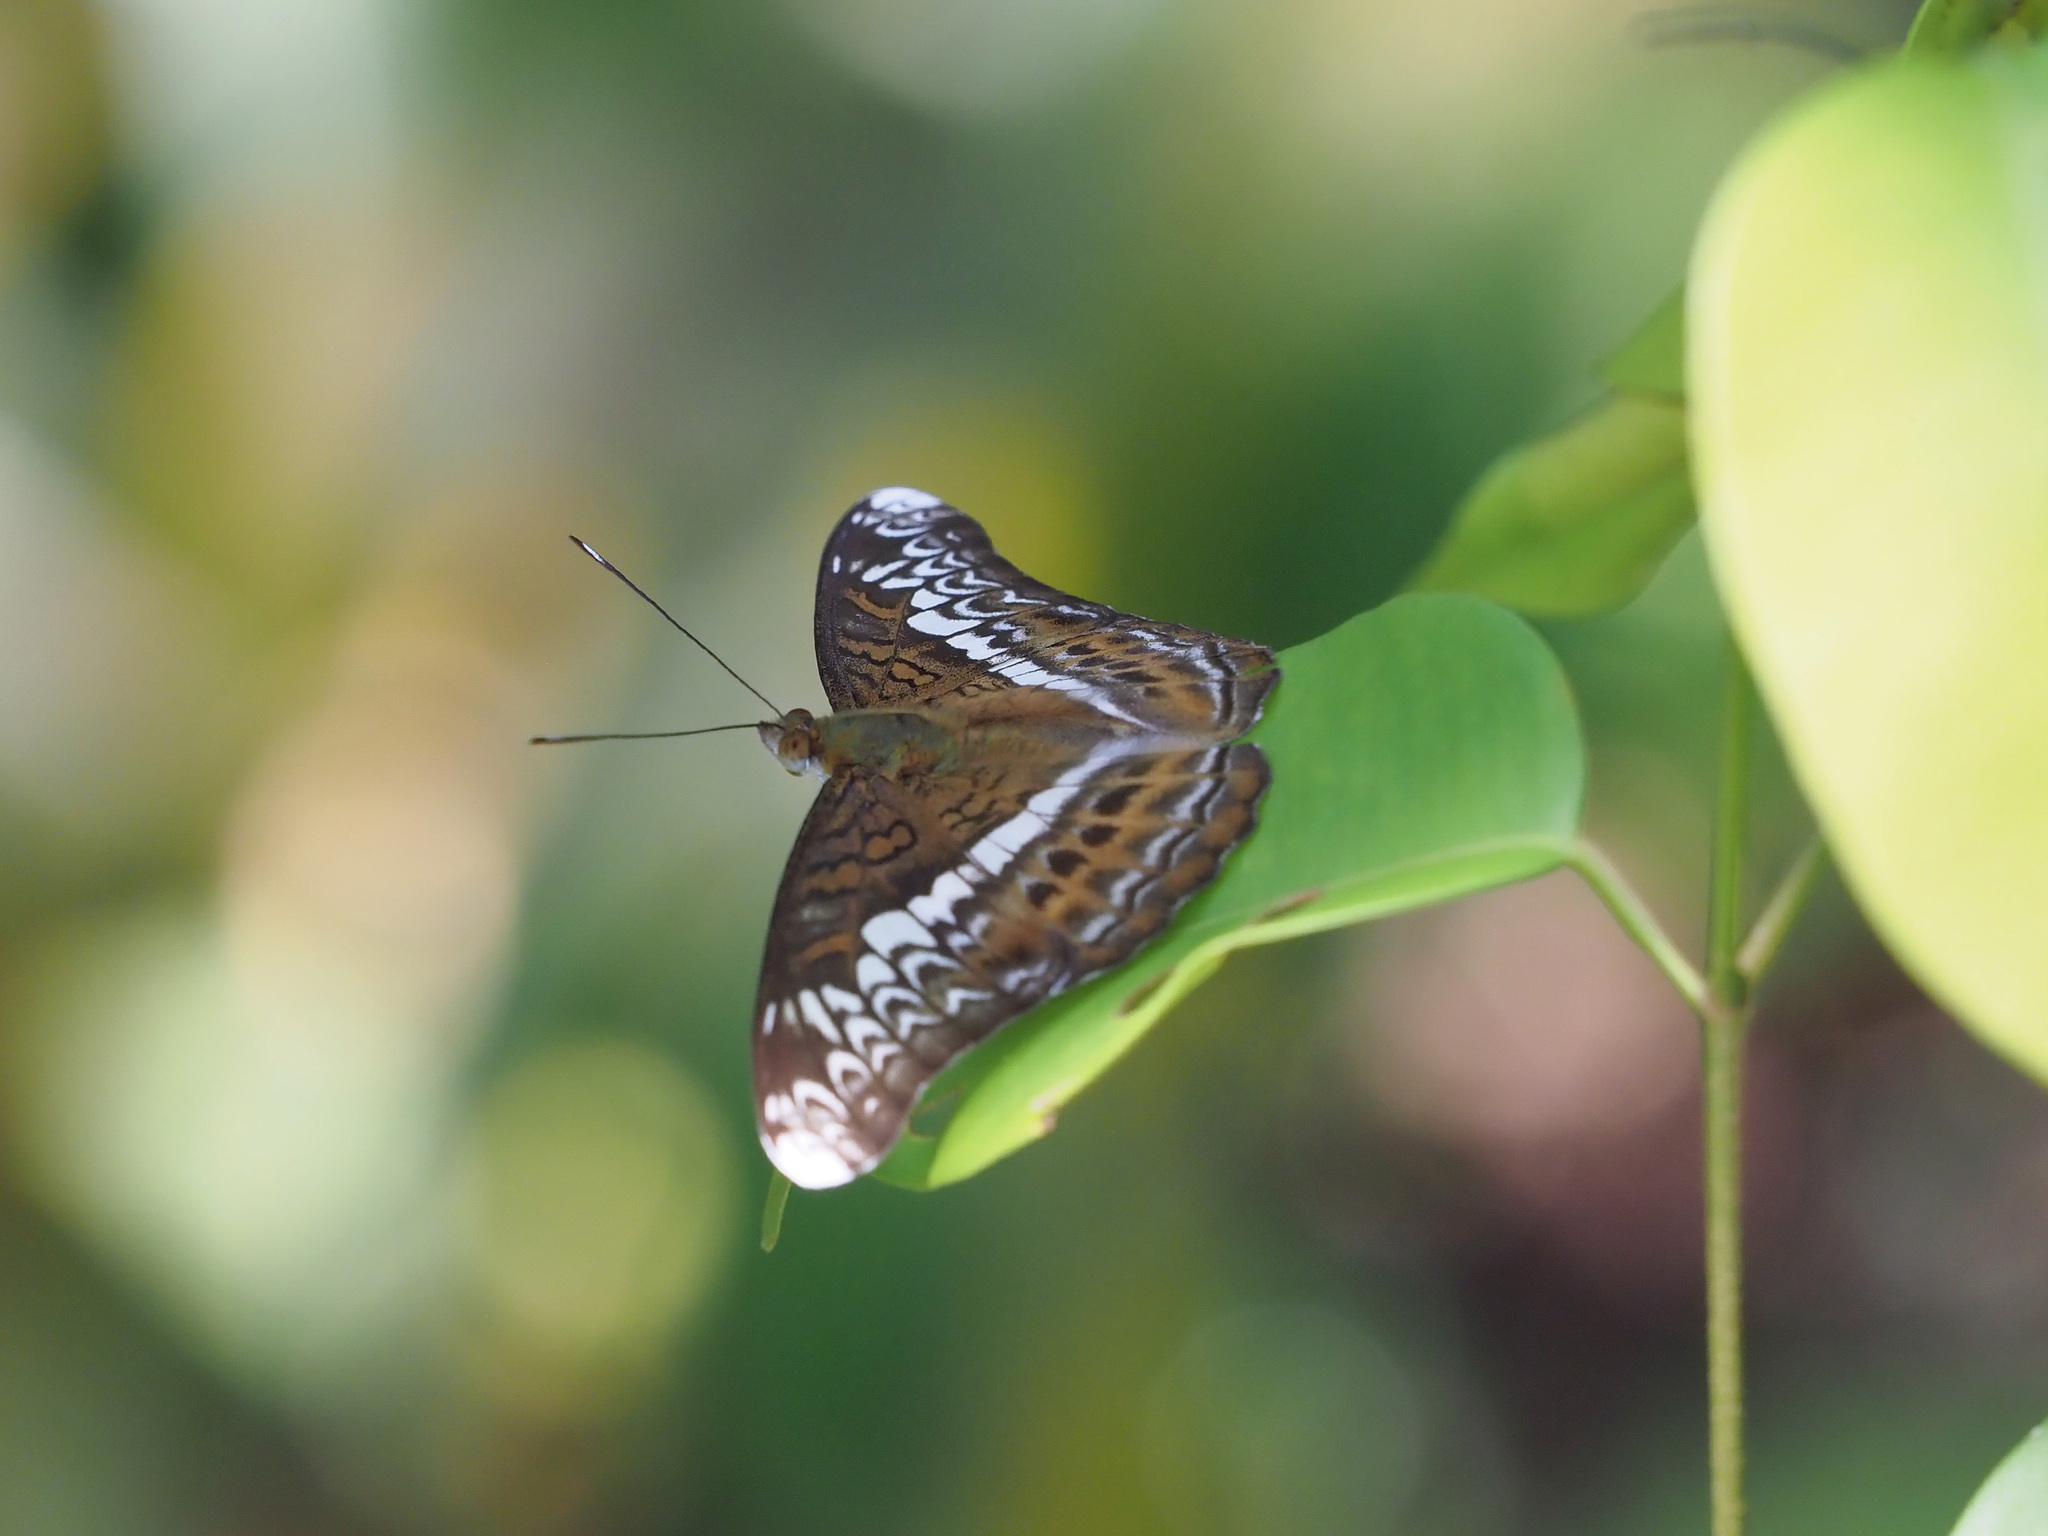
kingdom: Animalia
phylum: Arthropoda
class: Insecta
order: Lepidoptera
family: Nymphalidae
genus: Lebadea
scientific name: Lebadea martha
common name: Knight
